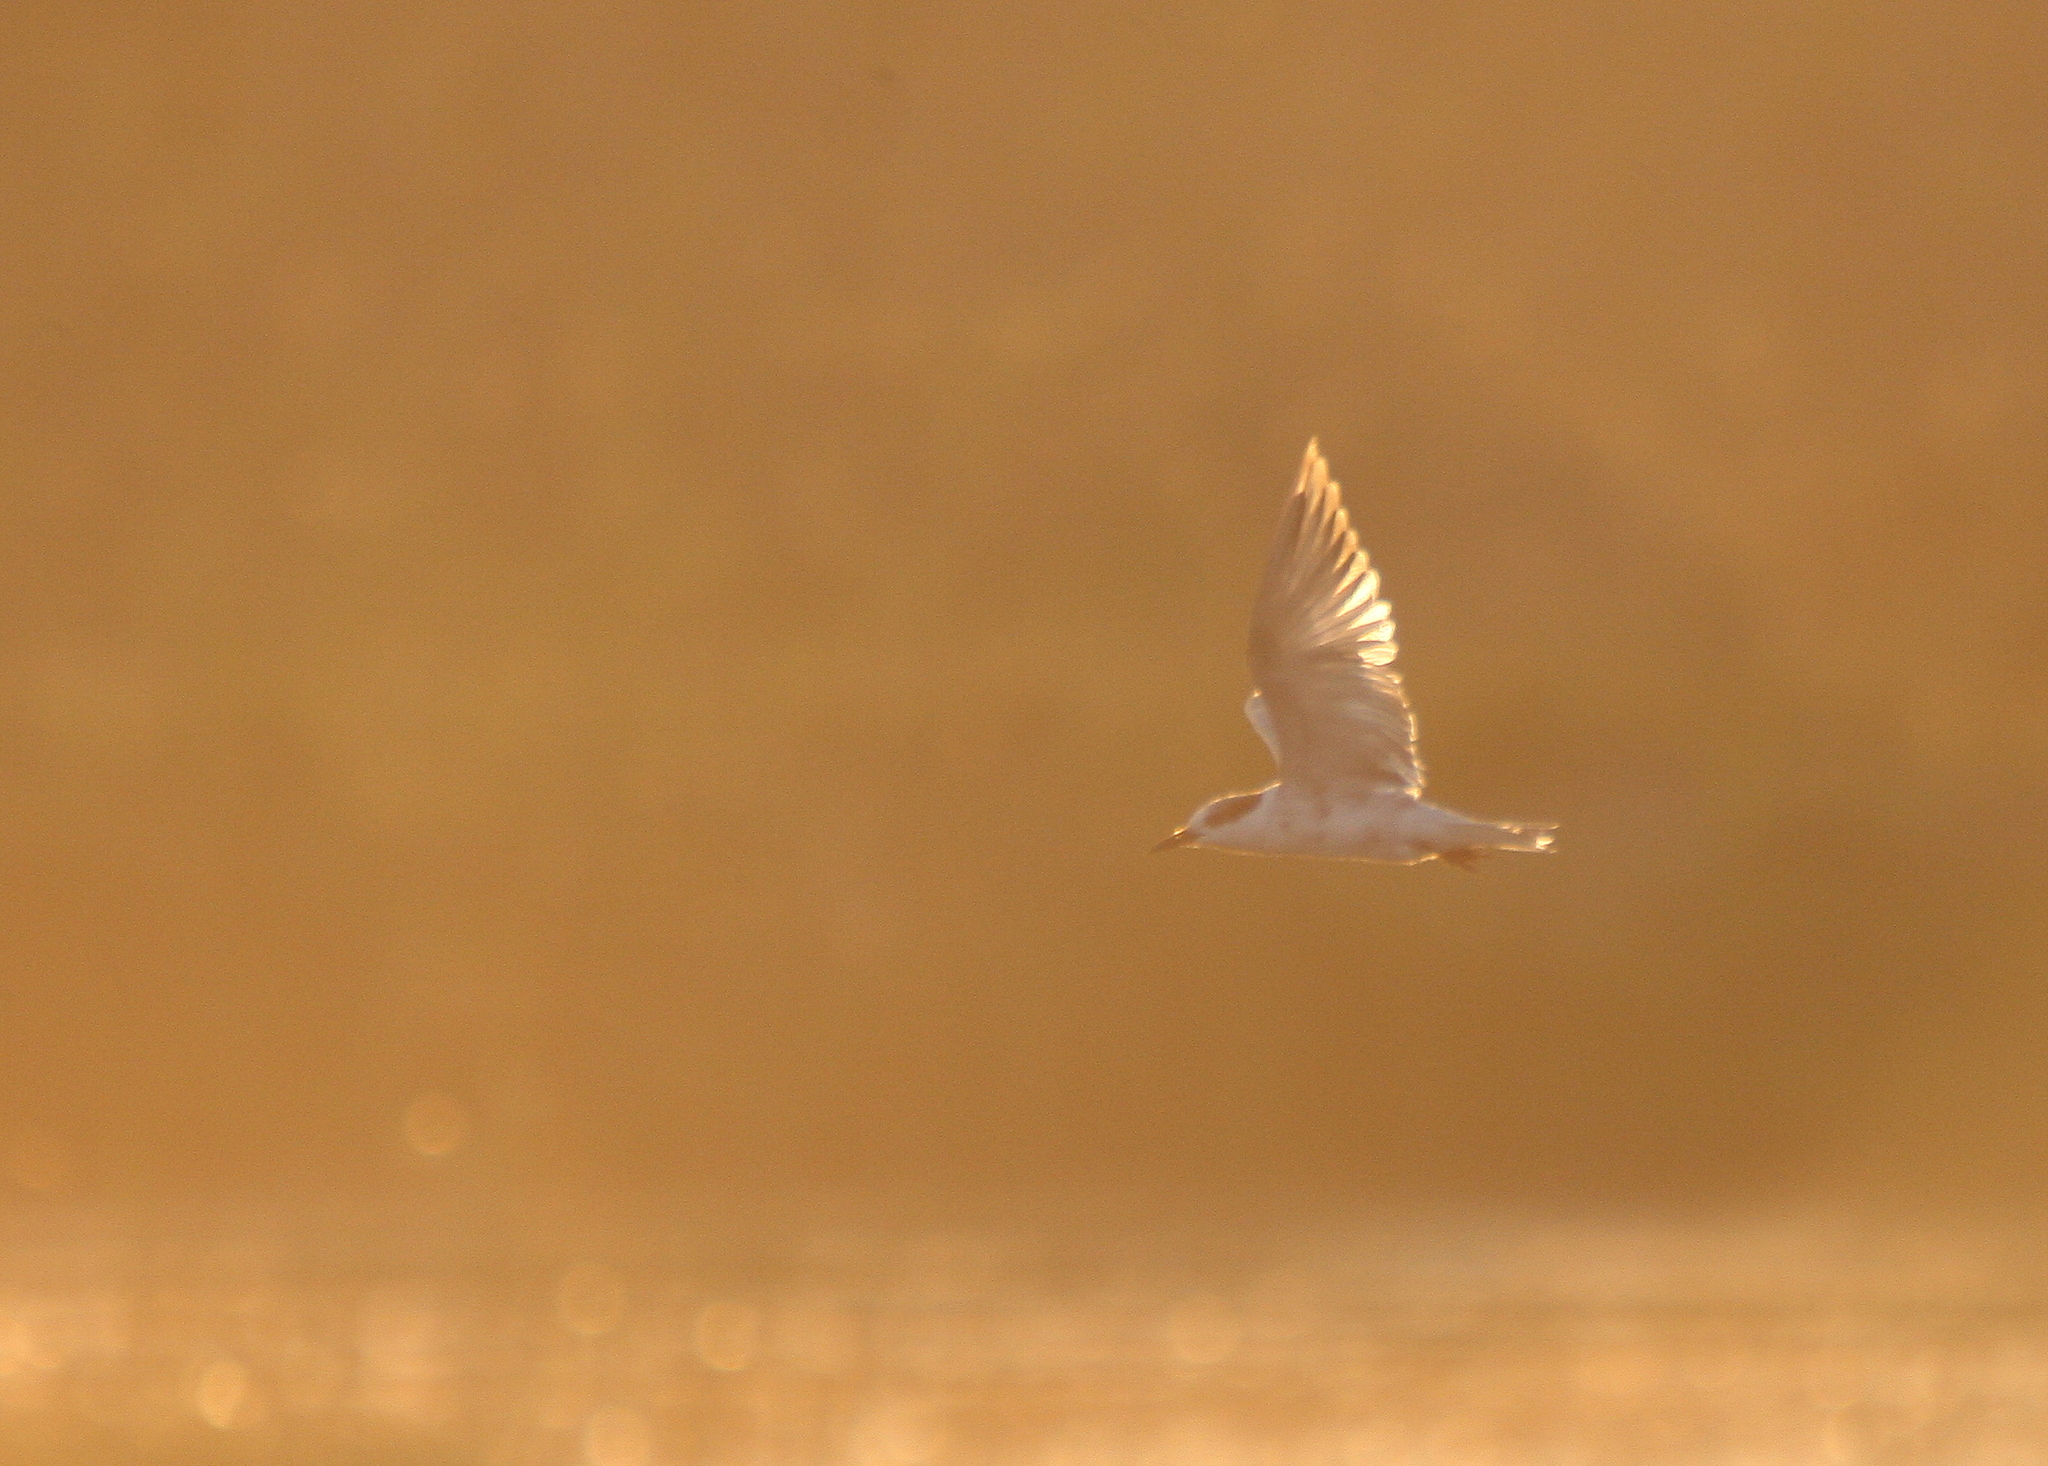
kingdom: Animalia
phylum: Chordata
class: Aves
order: Charadriiformes
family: Laridae
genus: Chlidonias
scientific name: Chlidonias hybrida
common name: Whiskered tern
